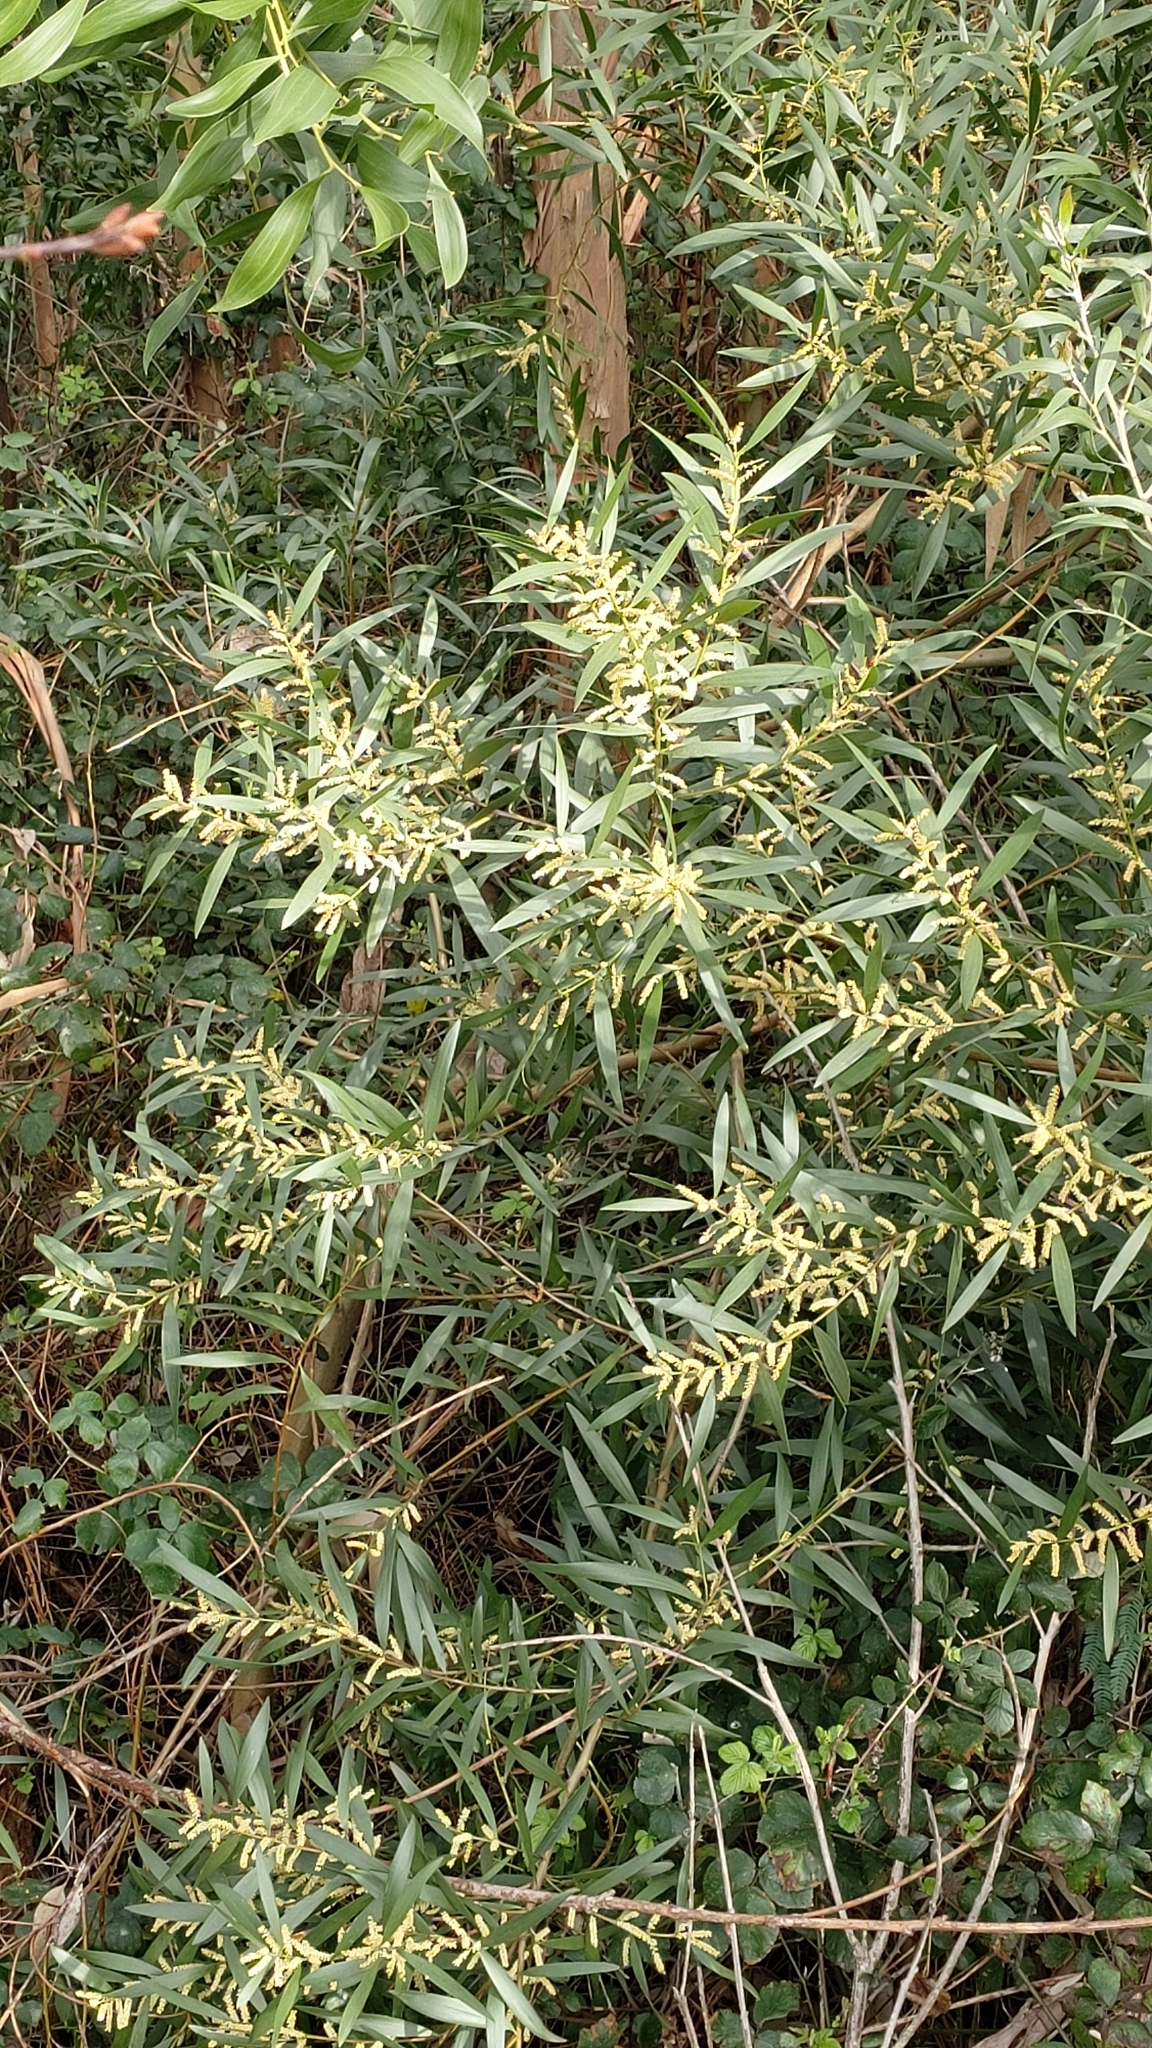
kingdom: Plantae
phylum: Tracheophyta
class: Magnoliopsida
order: Fabales
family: Fabaceae
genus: Acacia
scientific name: Acacia longifolia
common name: Sydney golden wattle
